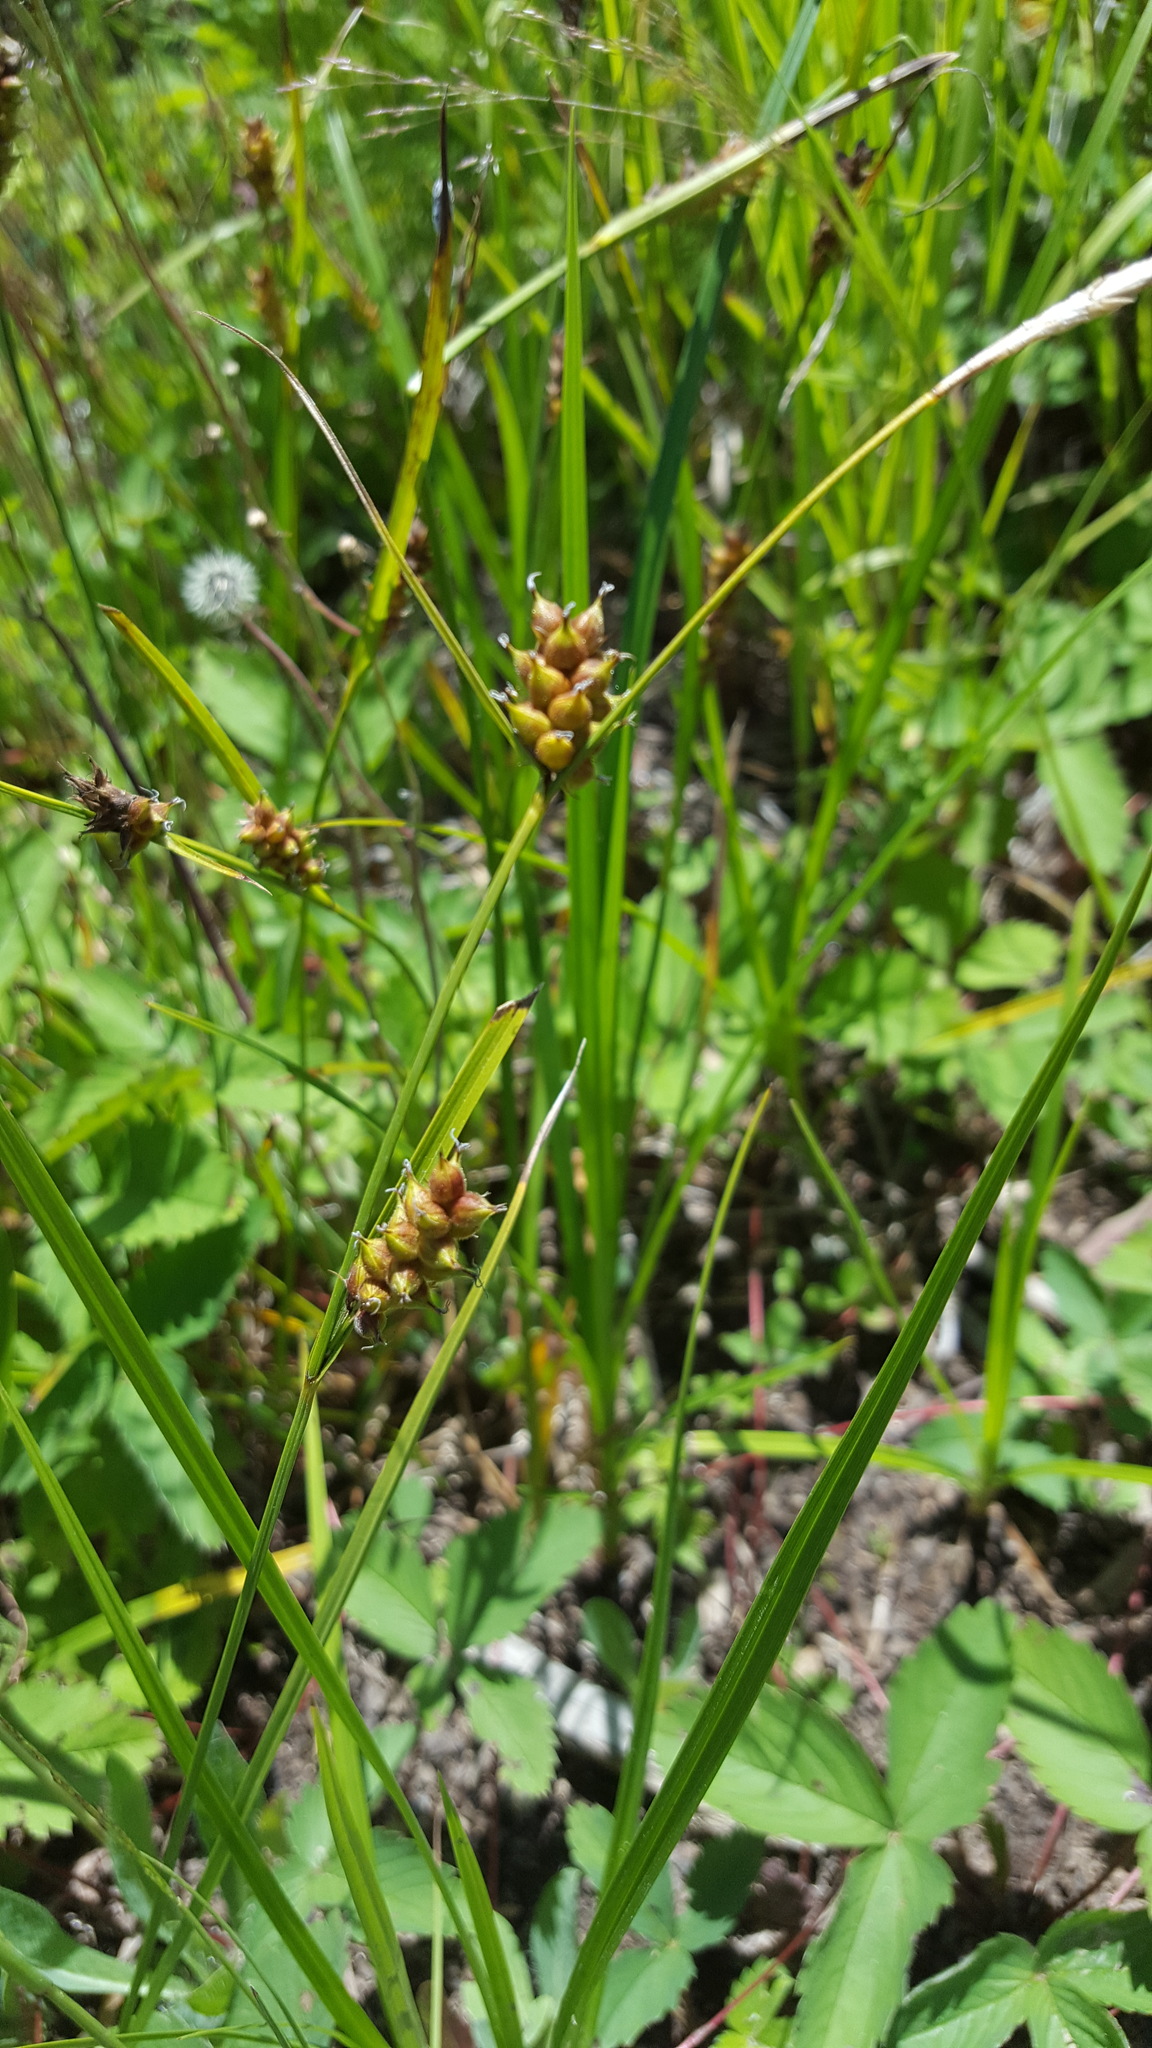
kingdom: Plantae
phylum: Tracheophyta
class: Liliopsida
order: Poales
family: Cyperaceae
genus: Carex
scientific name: Carex houghtoniana
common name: Houghton's sedge
